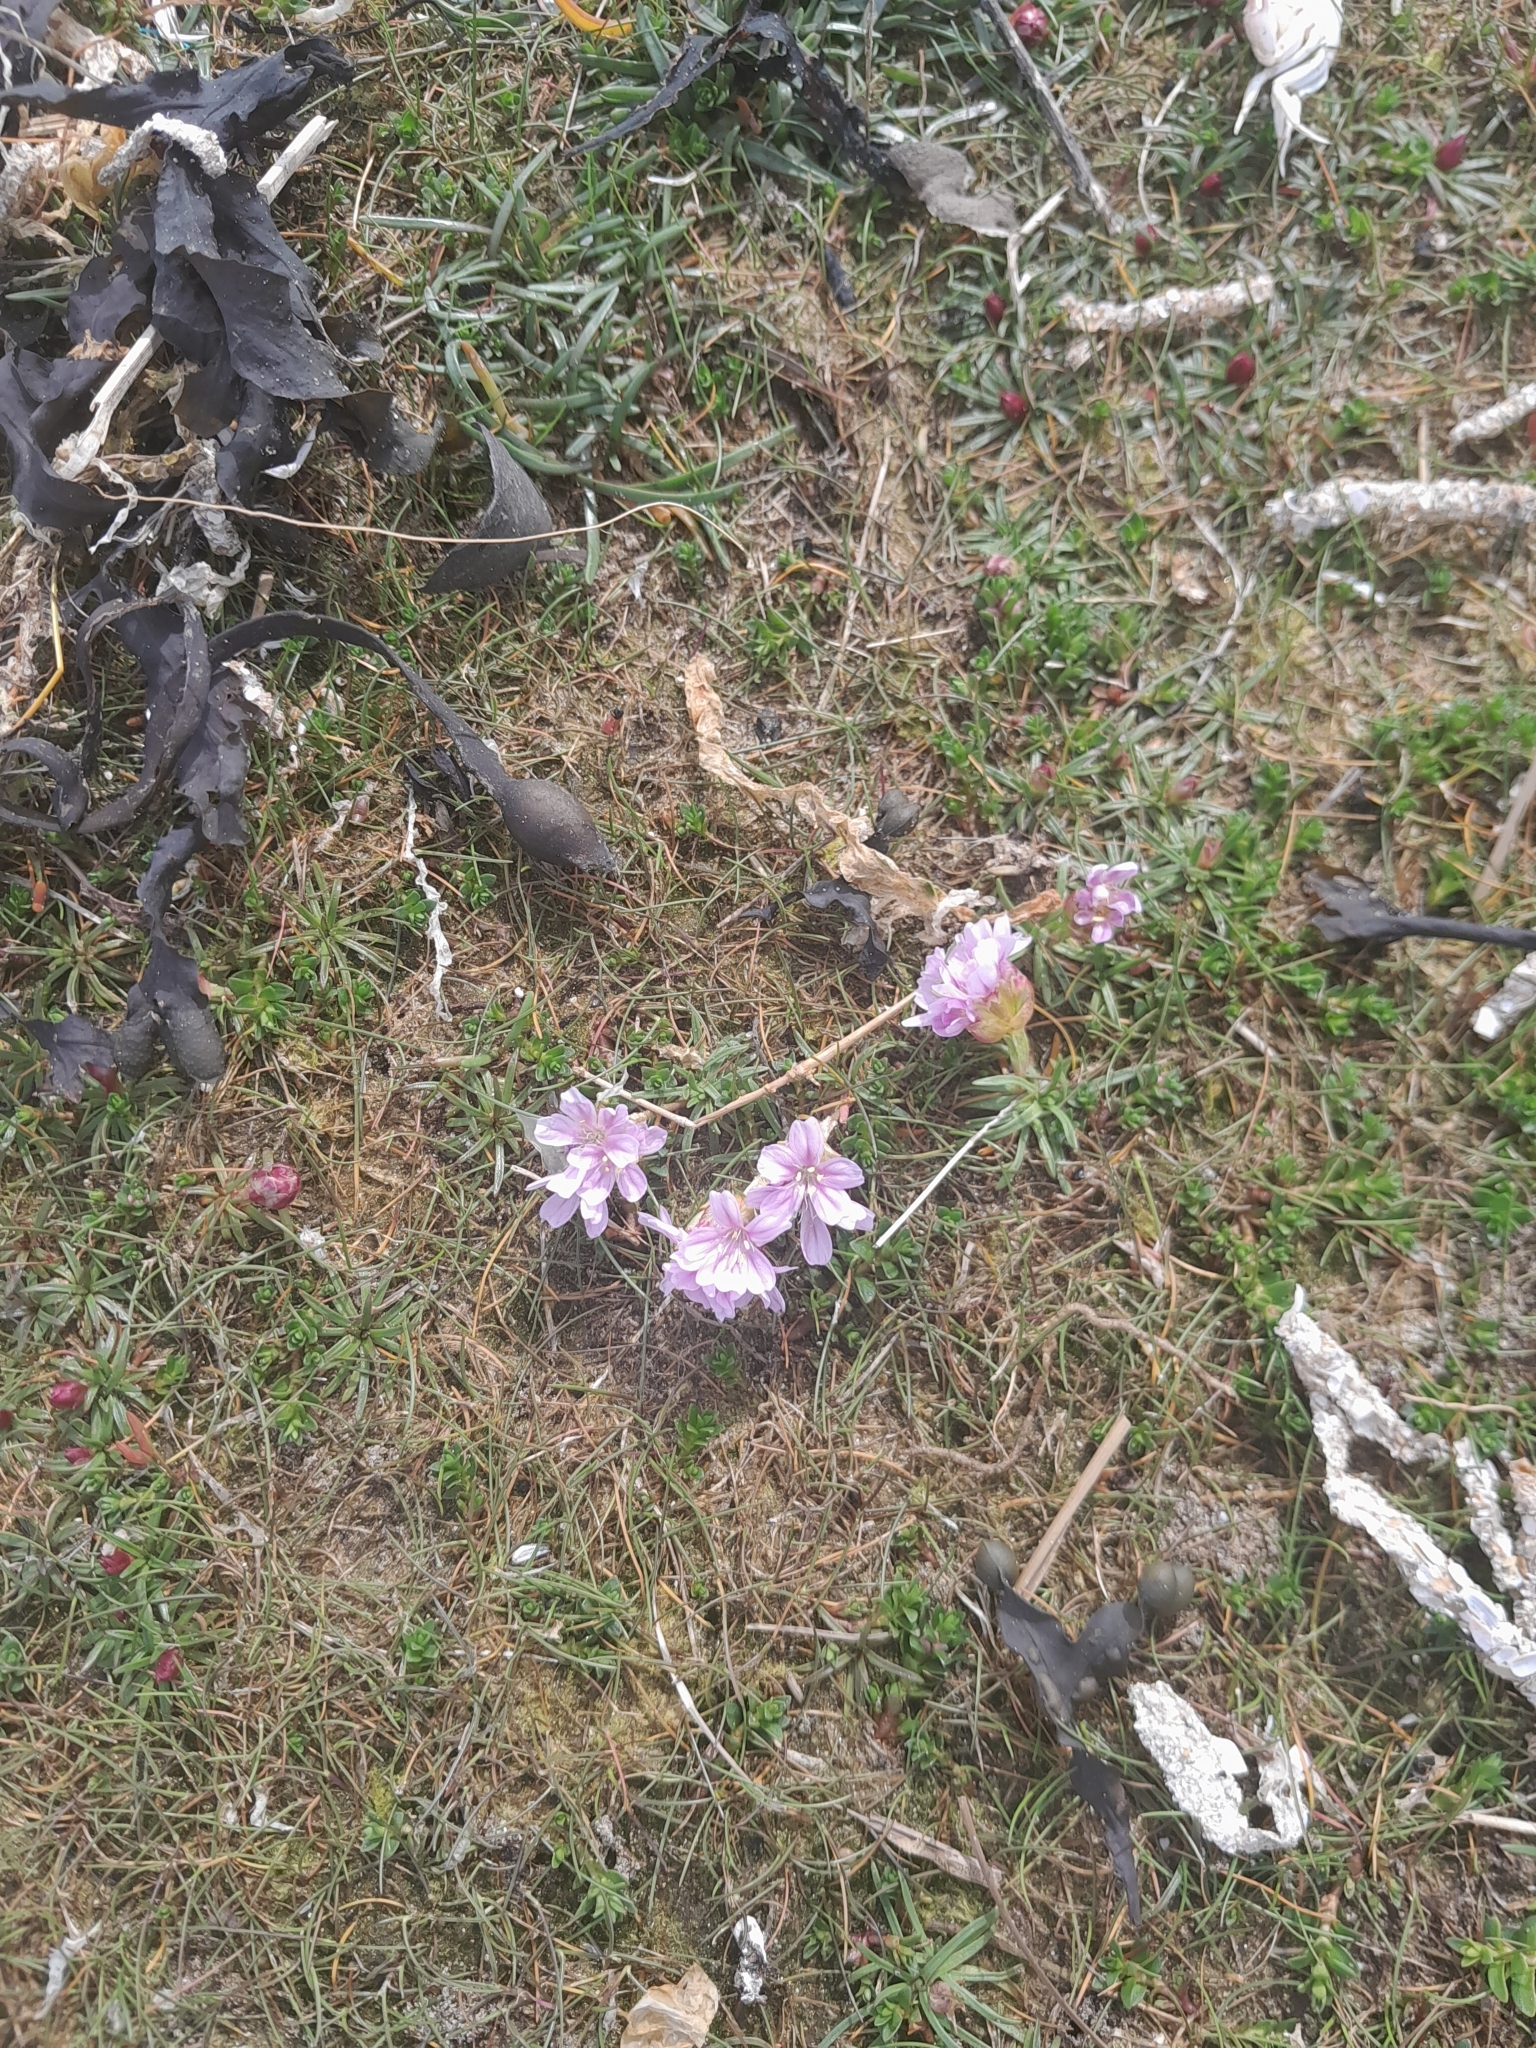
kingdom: Plantae
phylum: Tracheophyta
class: Magnoliopsida
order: Caryophyllales
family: Plumbaginaceae
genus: Armeria
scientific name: Armeria maritima
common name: Thrift
